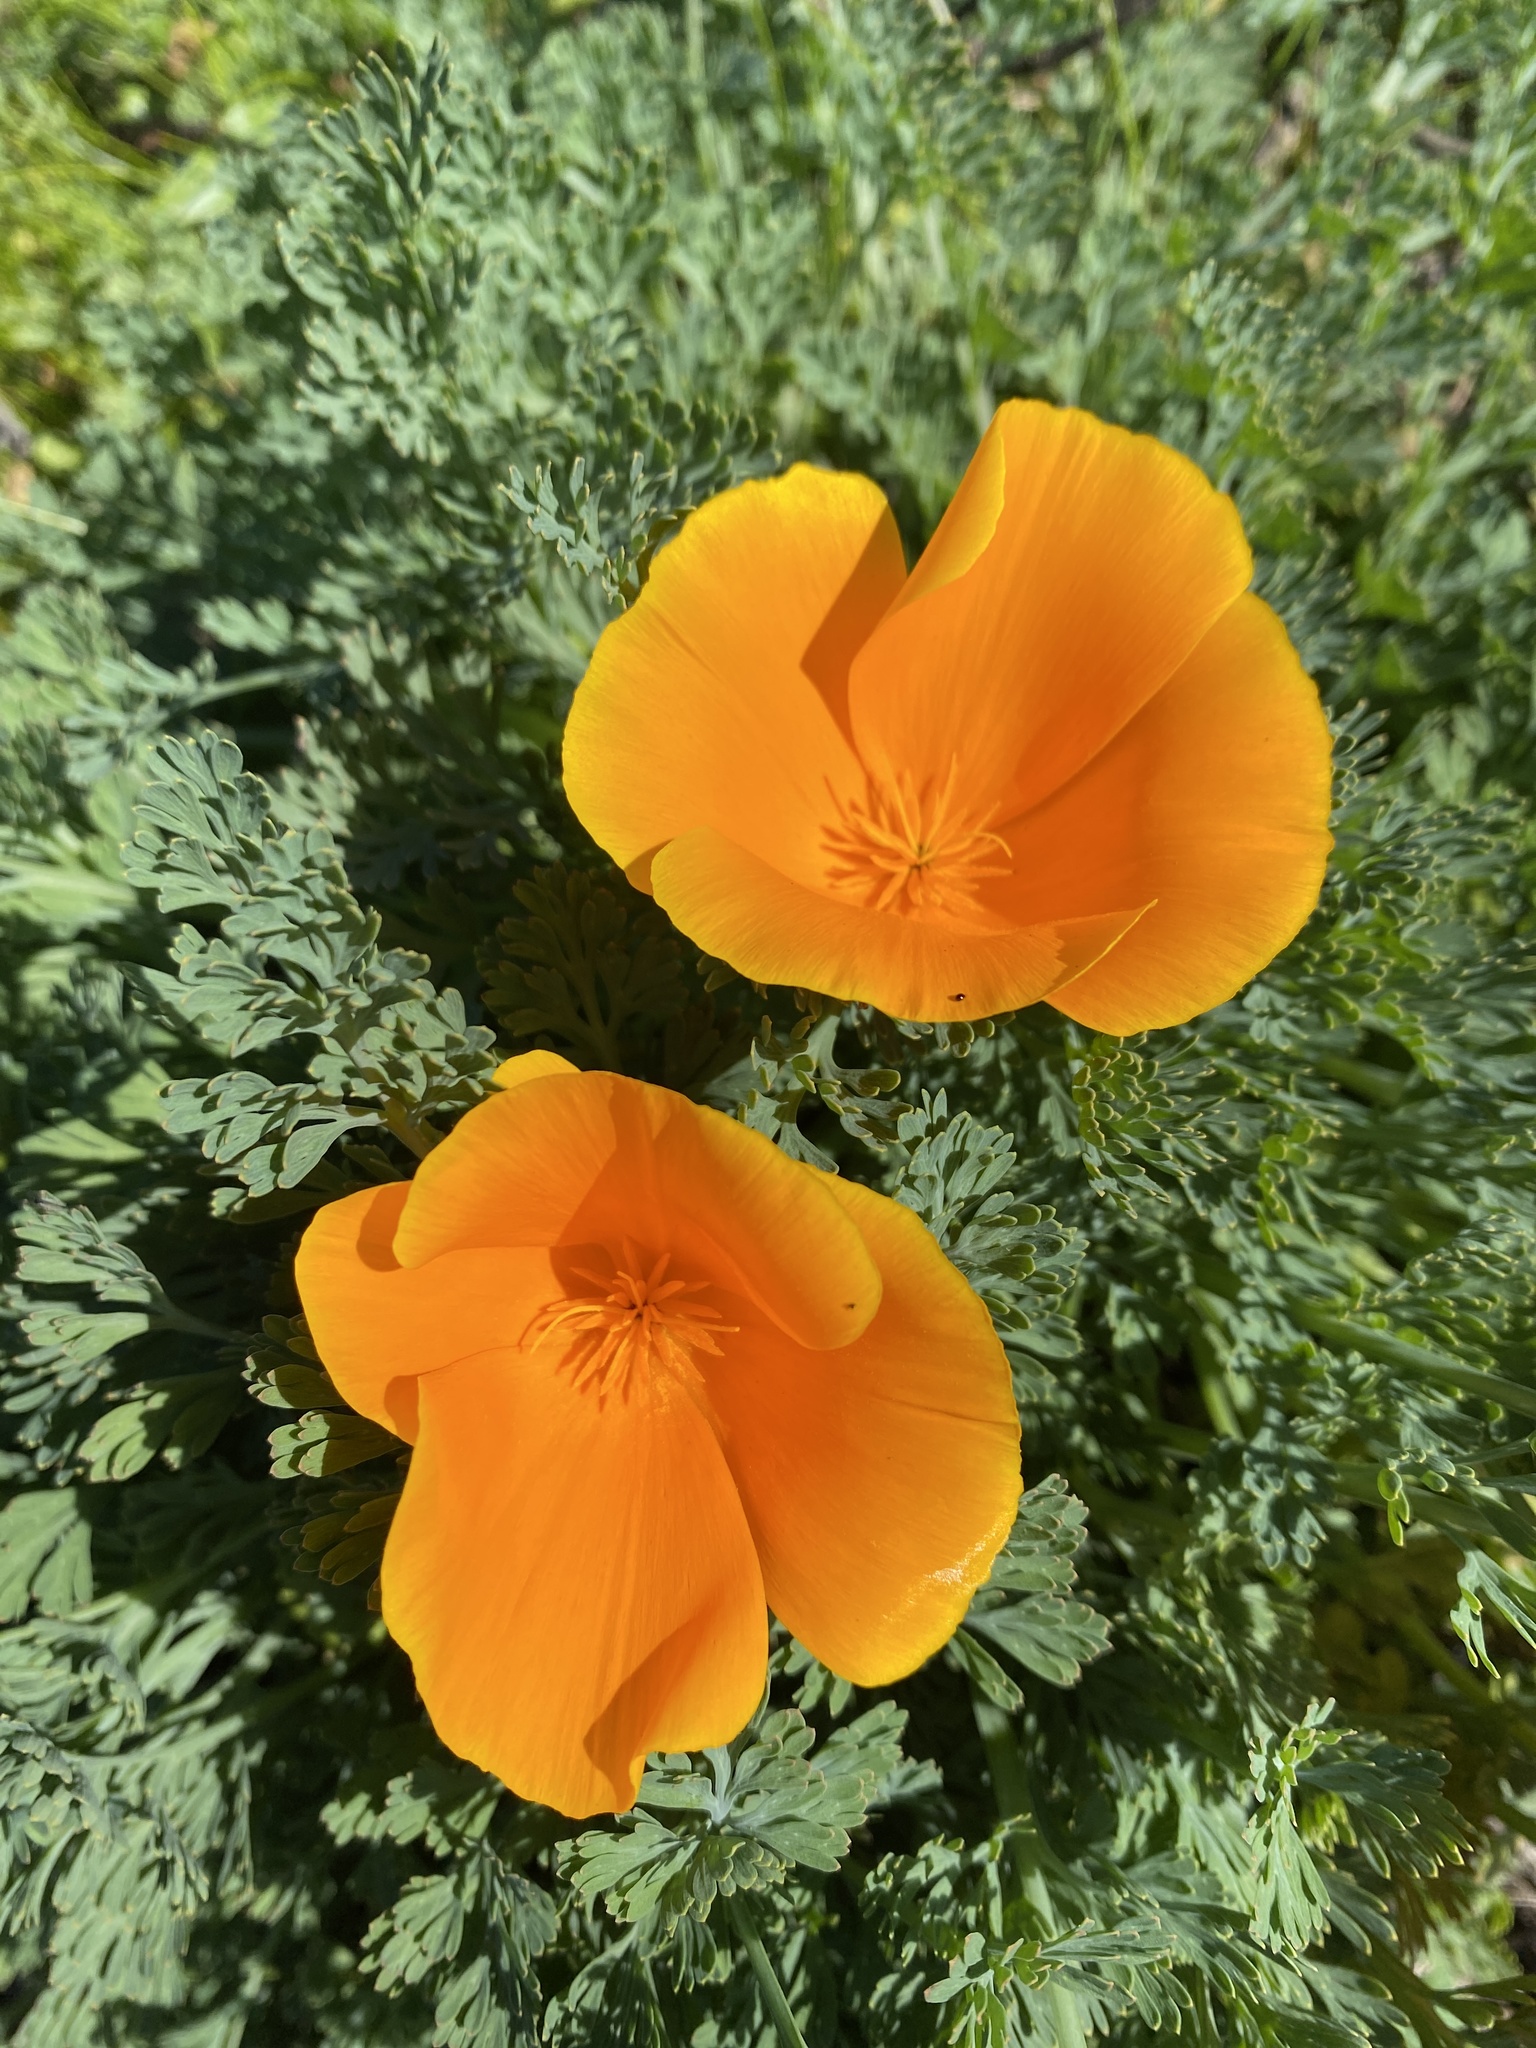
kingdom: Plantae
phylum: Tracheophyta
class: Magnoliopsida
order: Ranunculales
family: Papaveraceae
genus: Eschscholzia
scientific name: Eschscholzia californica
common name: California poppy
